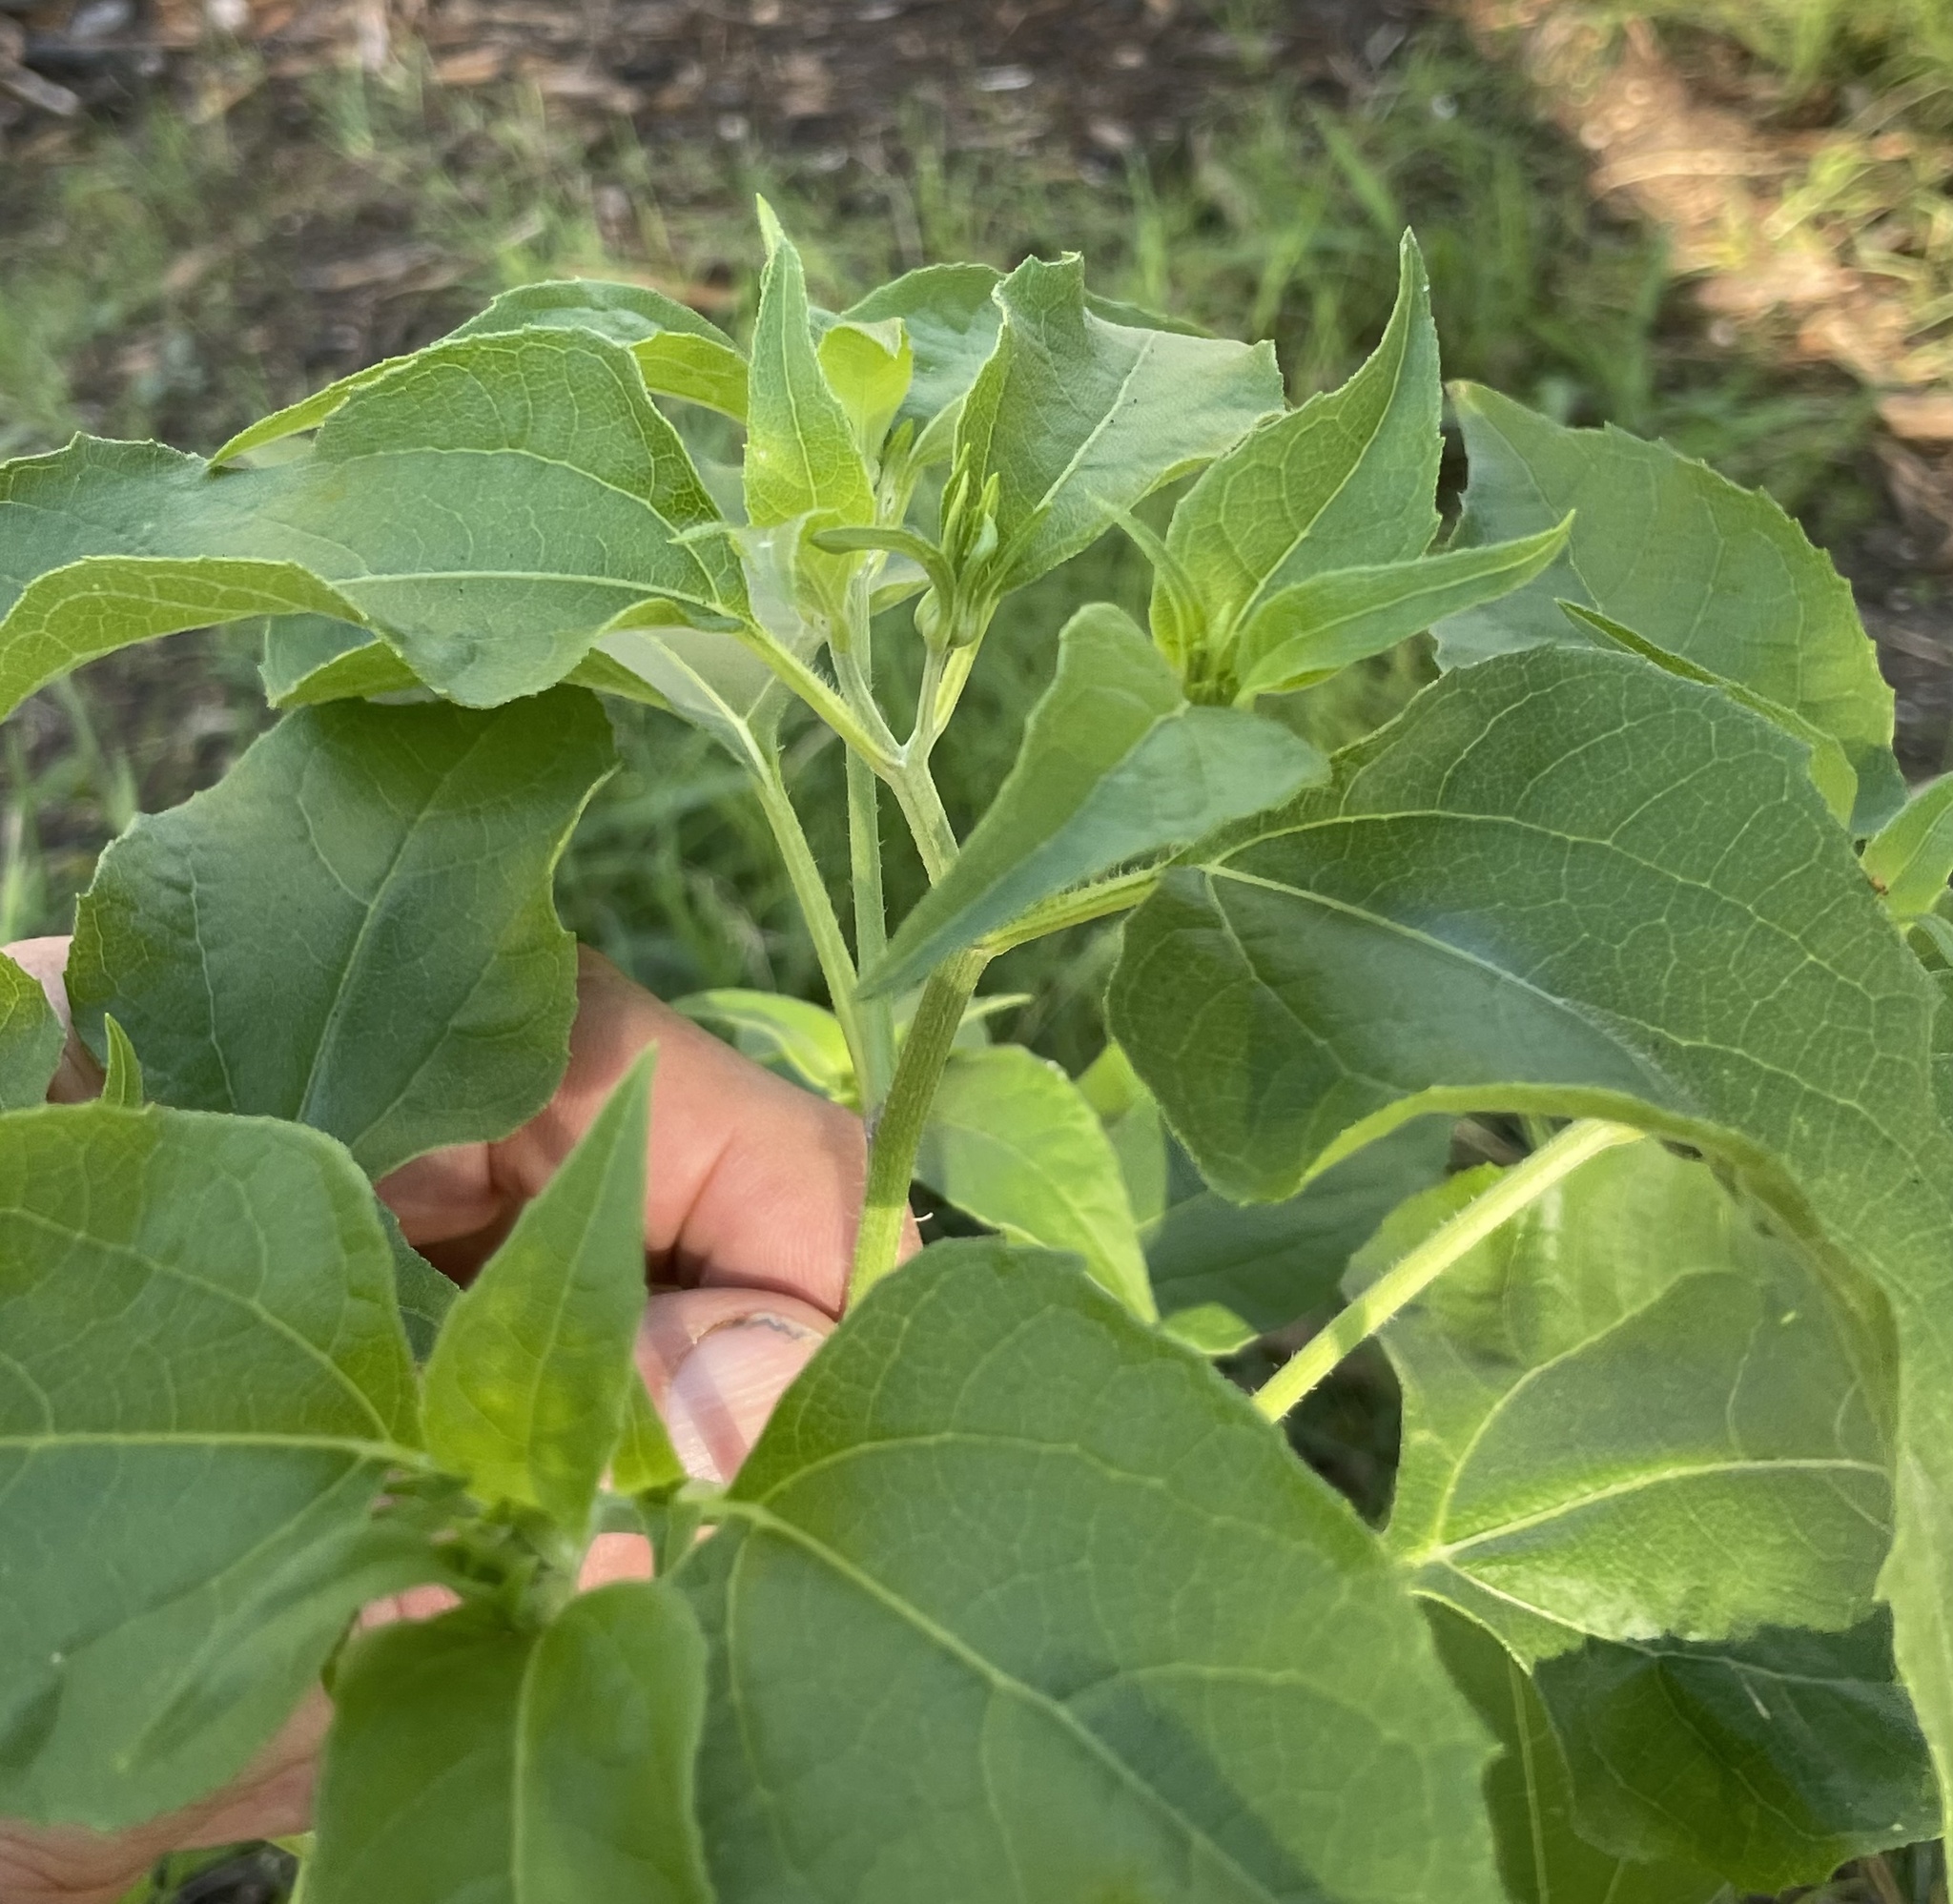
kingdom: Plantae
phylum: Tracheophyta
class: Magnoliopsida
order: Caryophyllales
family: Nyctaginaceae
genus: Mirabilis
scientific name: Mirabilis jalapa
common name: Marvel-of-peru
